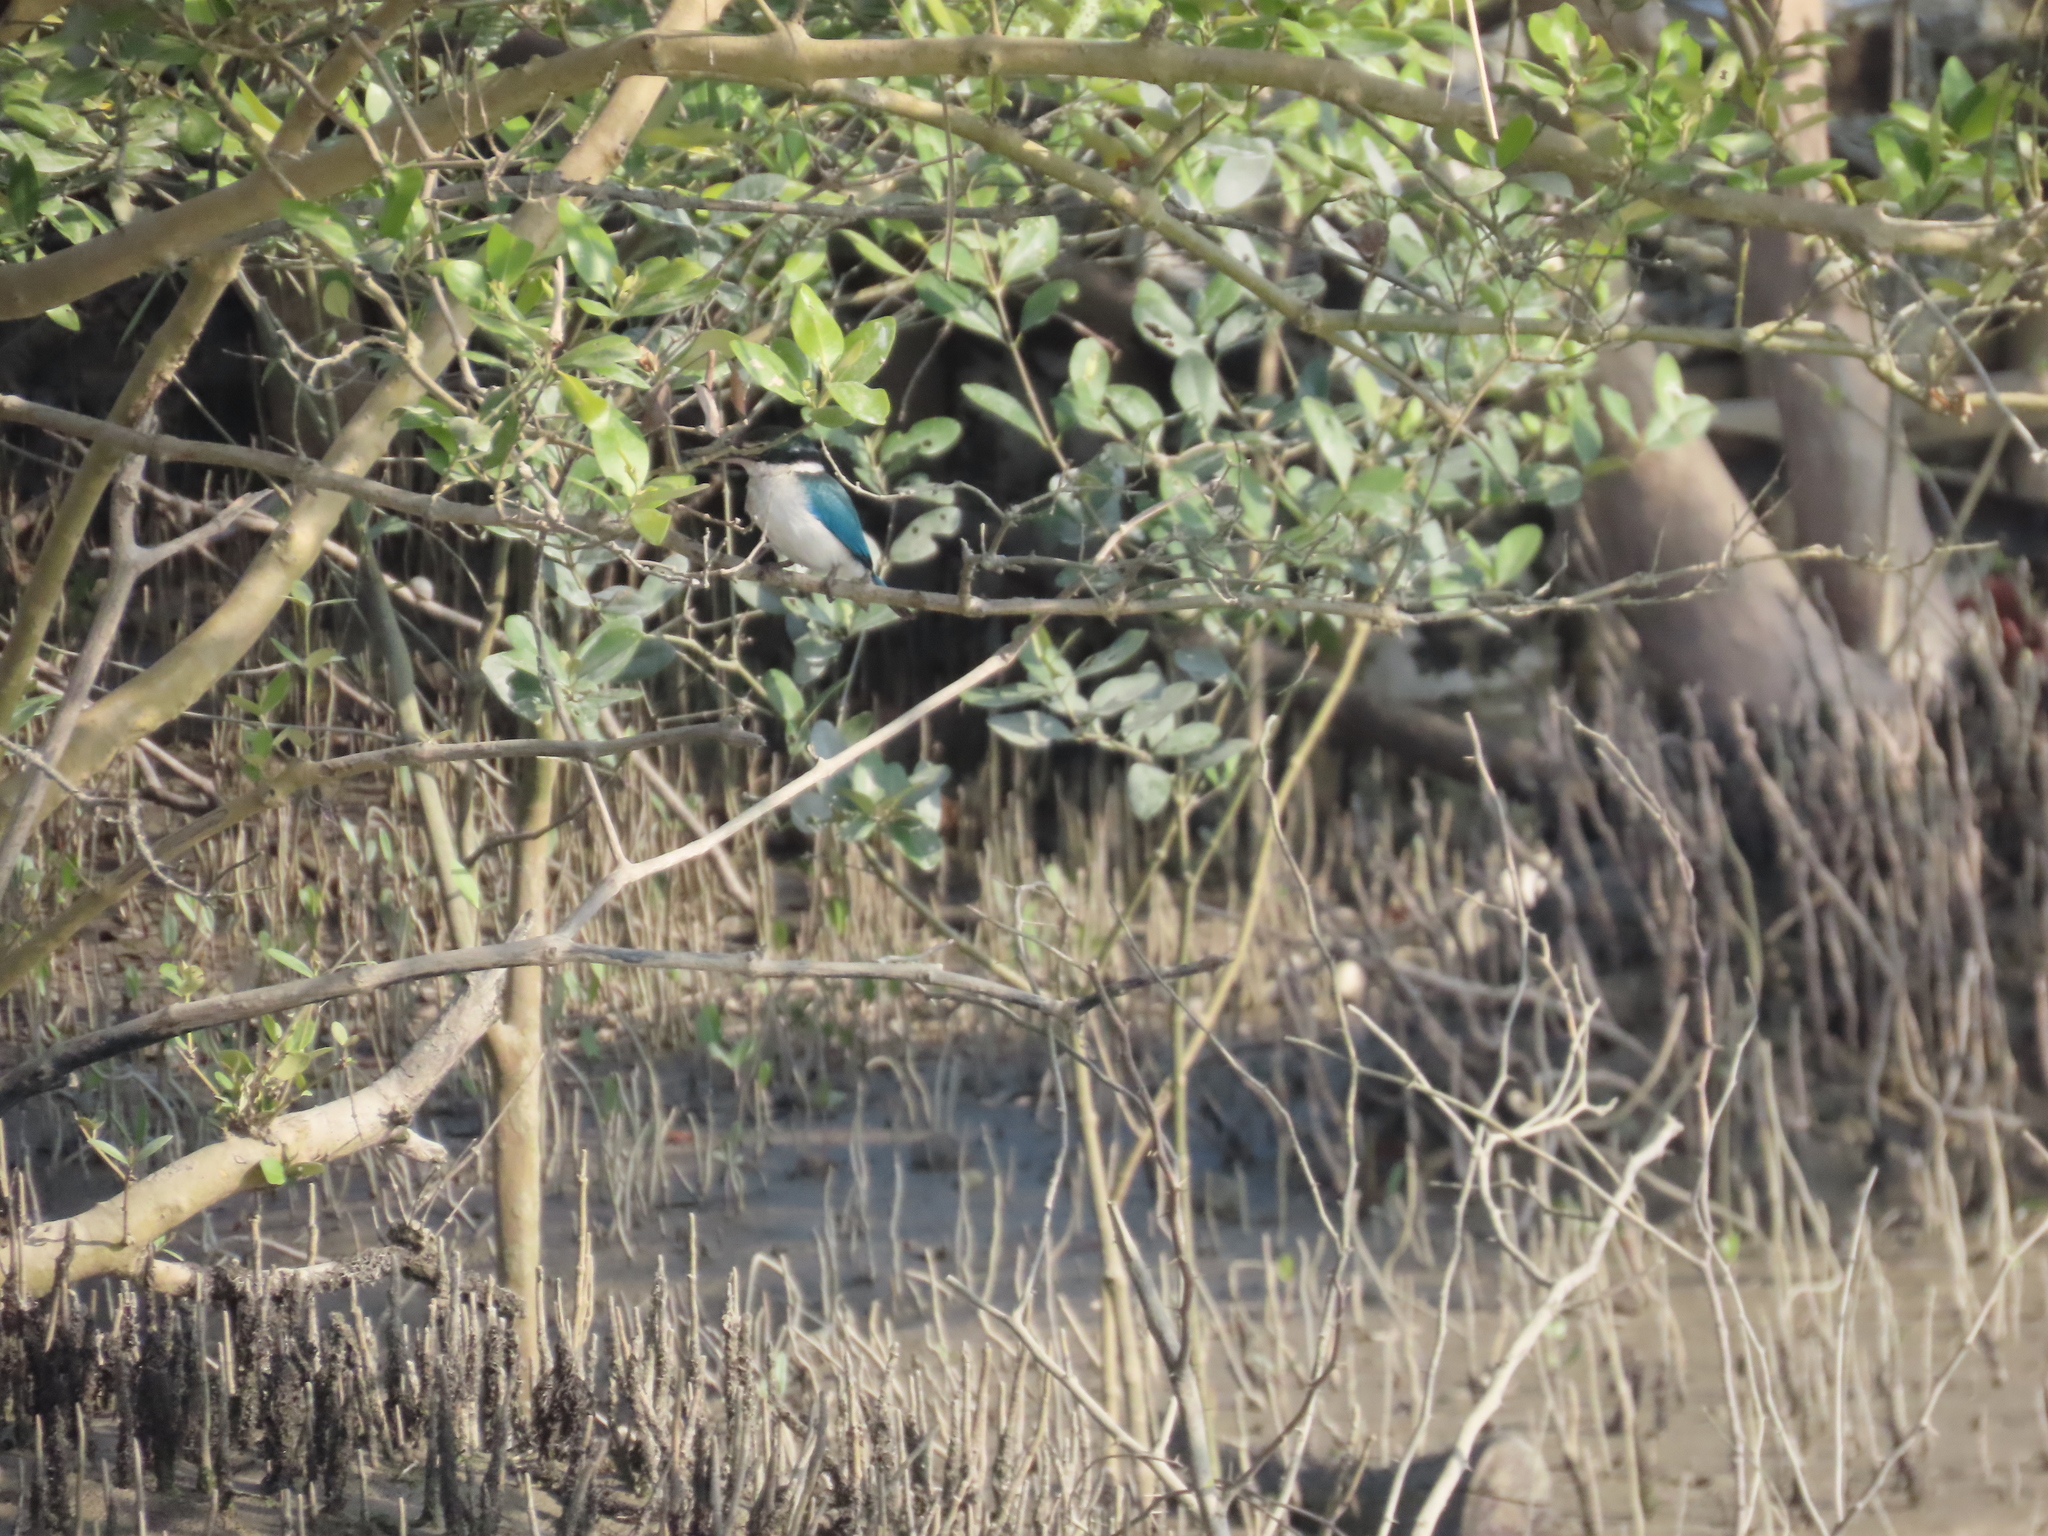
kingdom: Animalia
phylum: Chordata
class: Aves
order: Coraciiformes
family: Alcedinidae
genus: Todiramphus
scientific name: Todiramphus chloris
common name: Collared kingfisher
